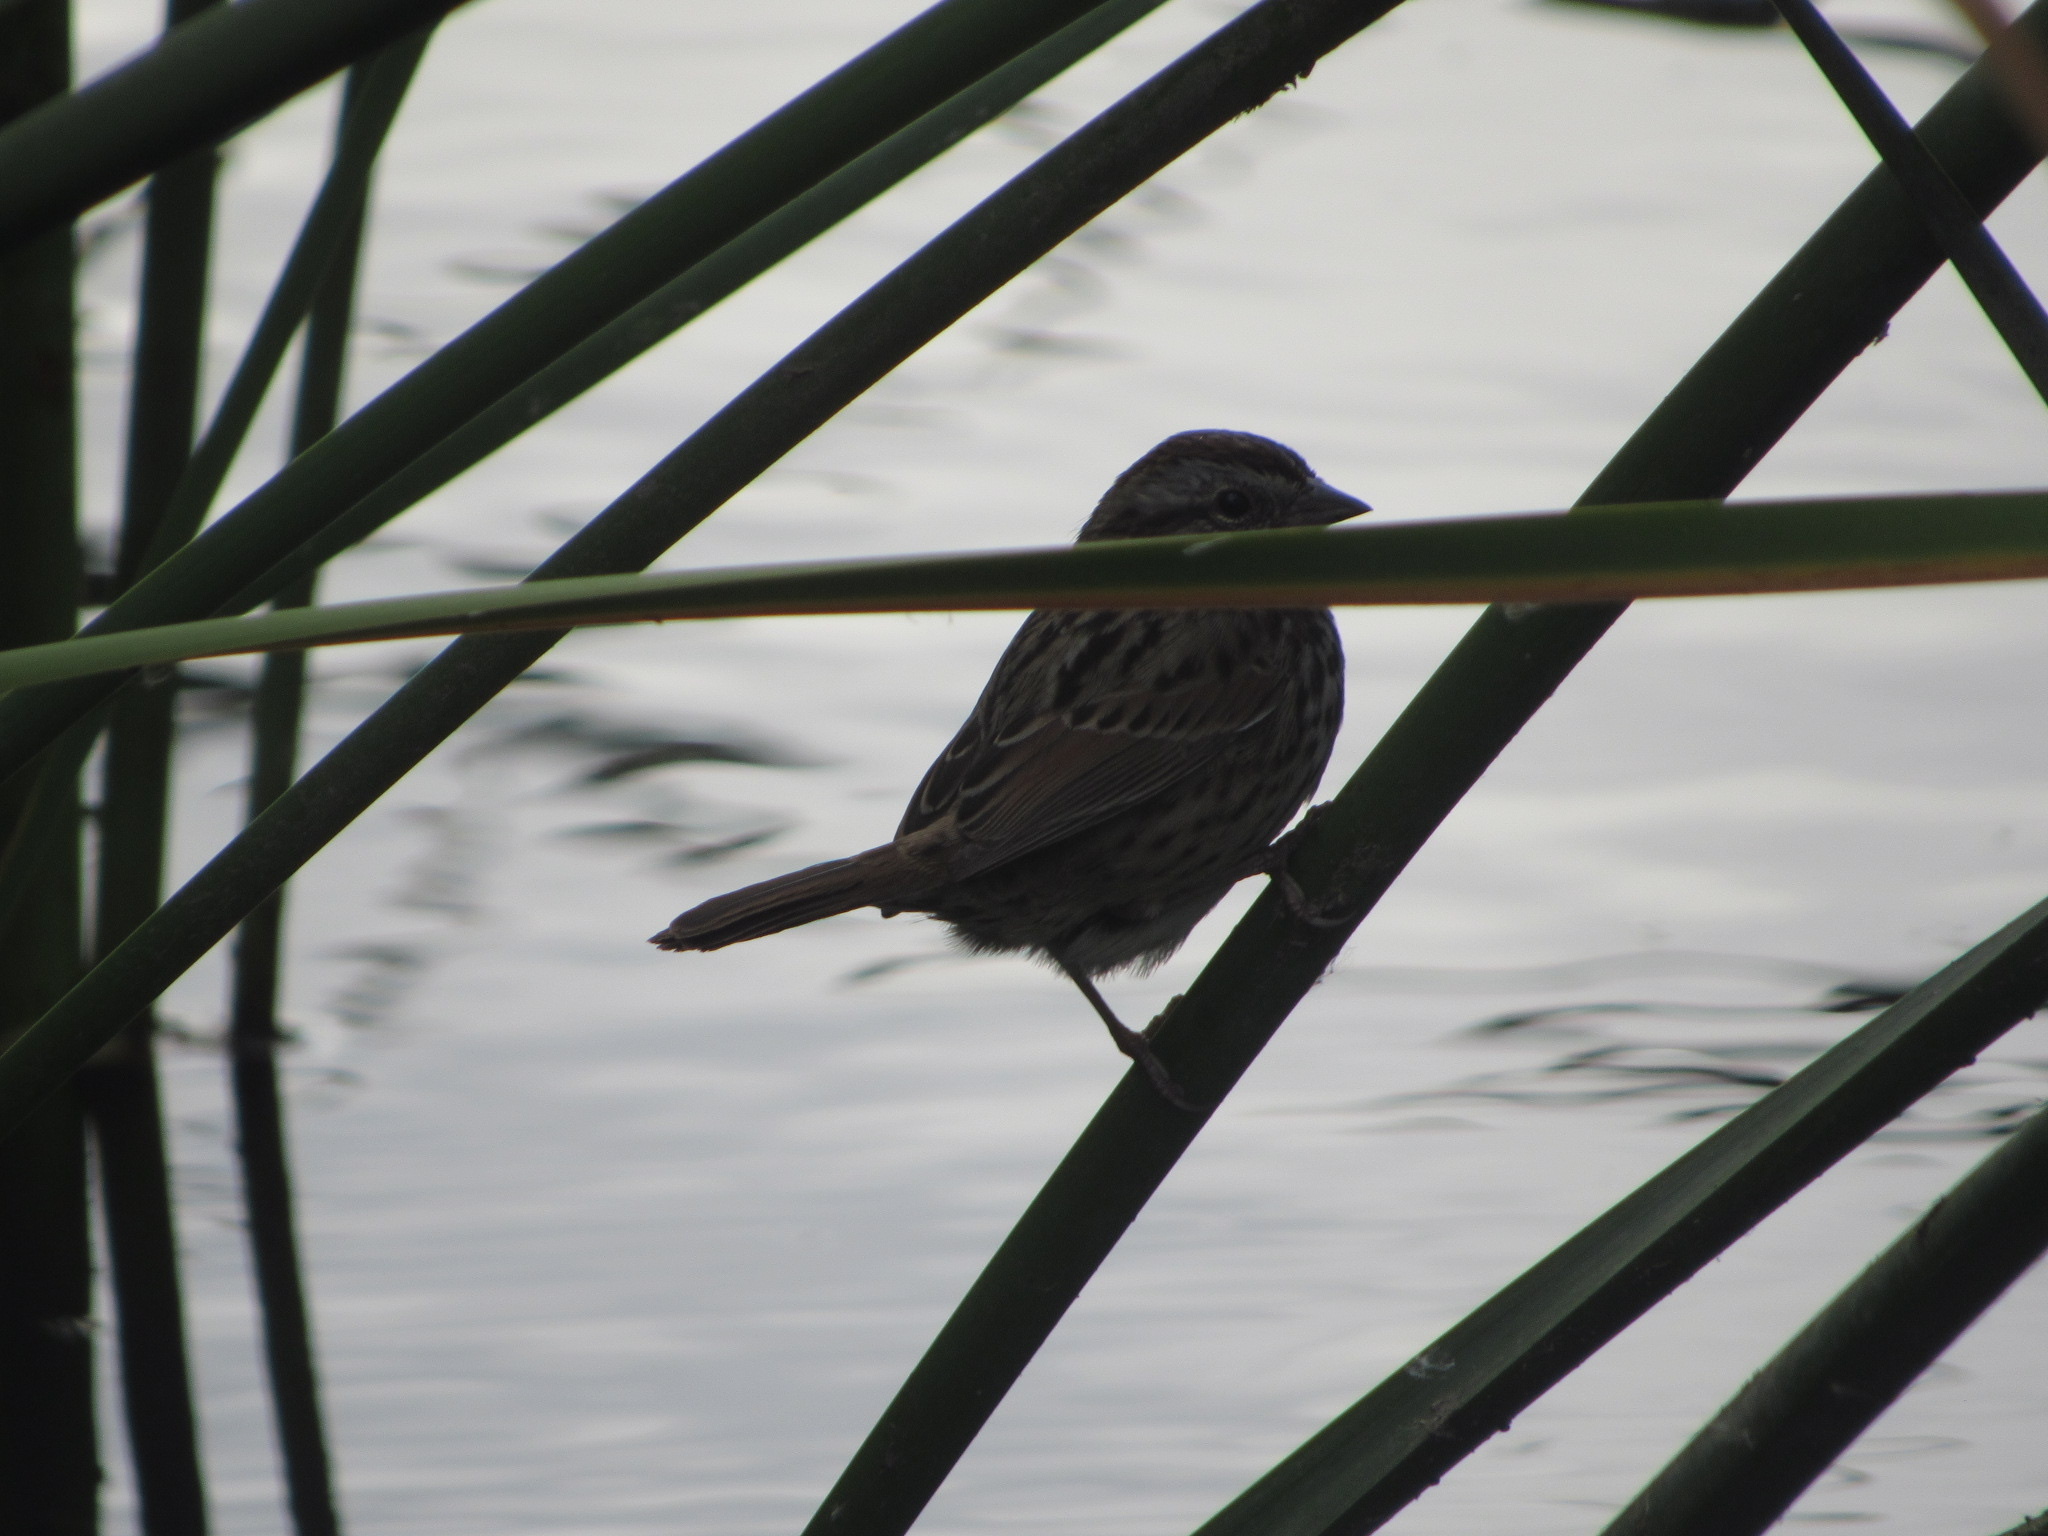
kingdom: Animalia
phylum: Chordata
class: Aves
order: Passeriformes
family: Passerellidae
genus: Melospiza
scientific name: Melospiza melodia
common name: Song sparrow
